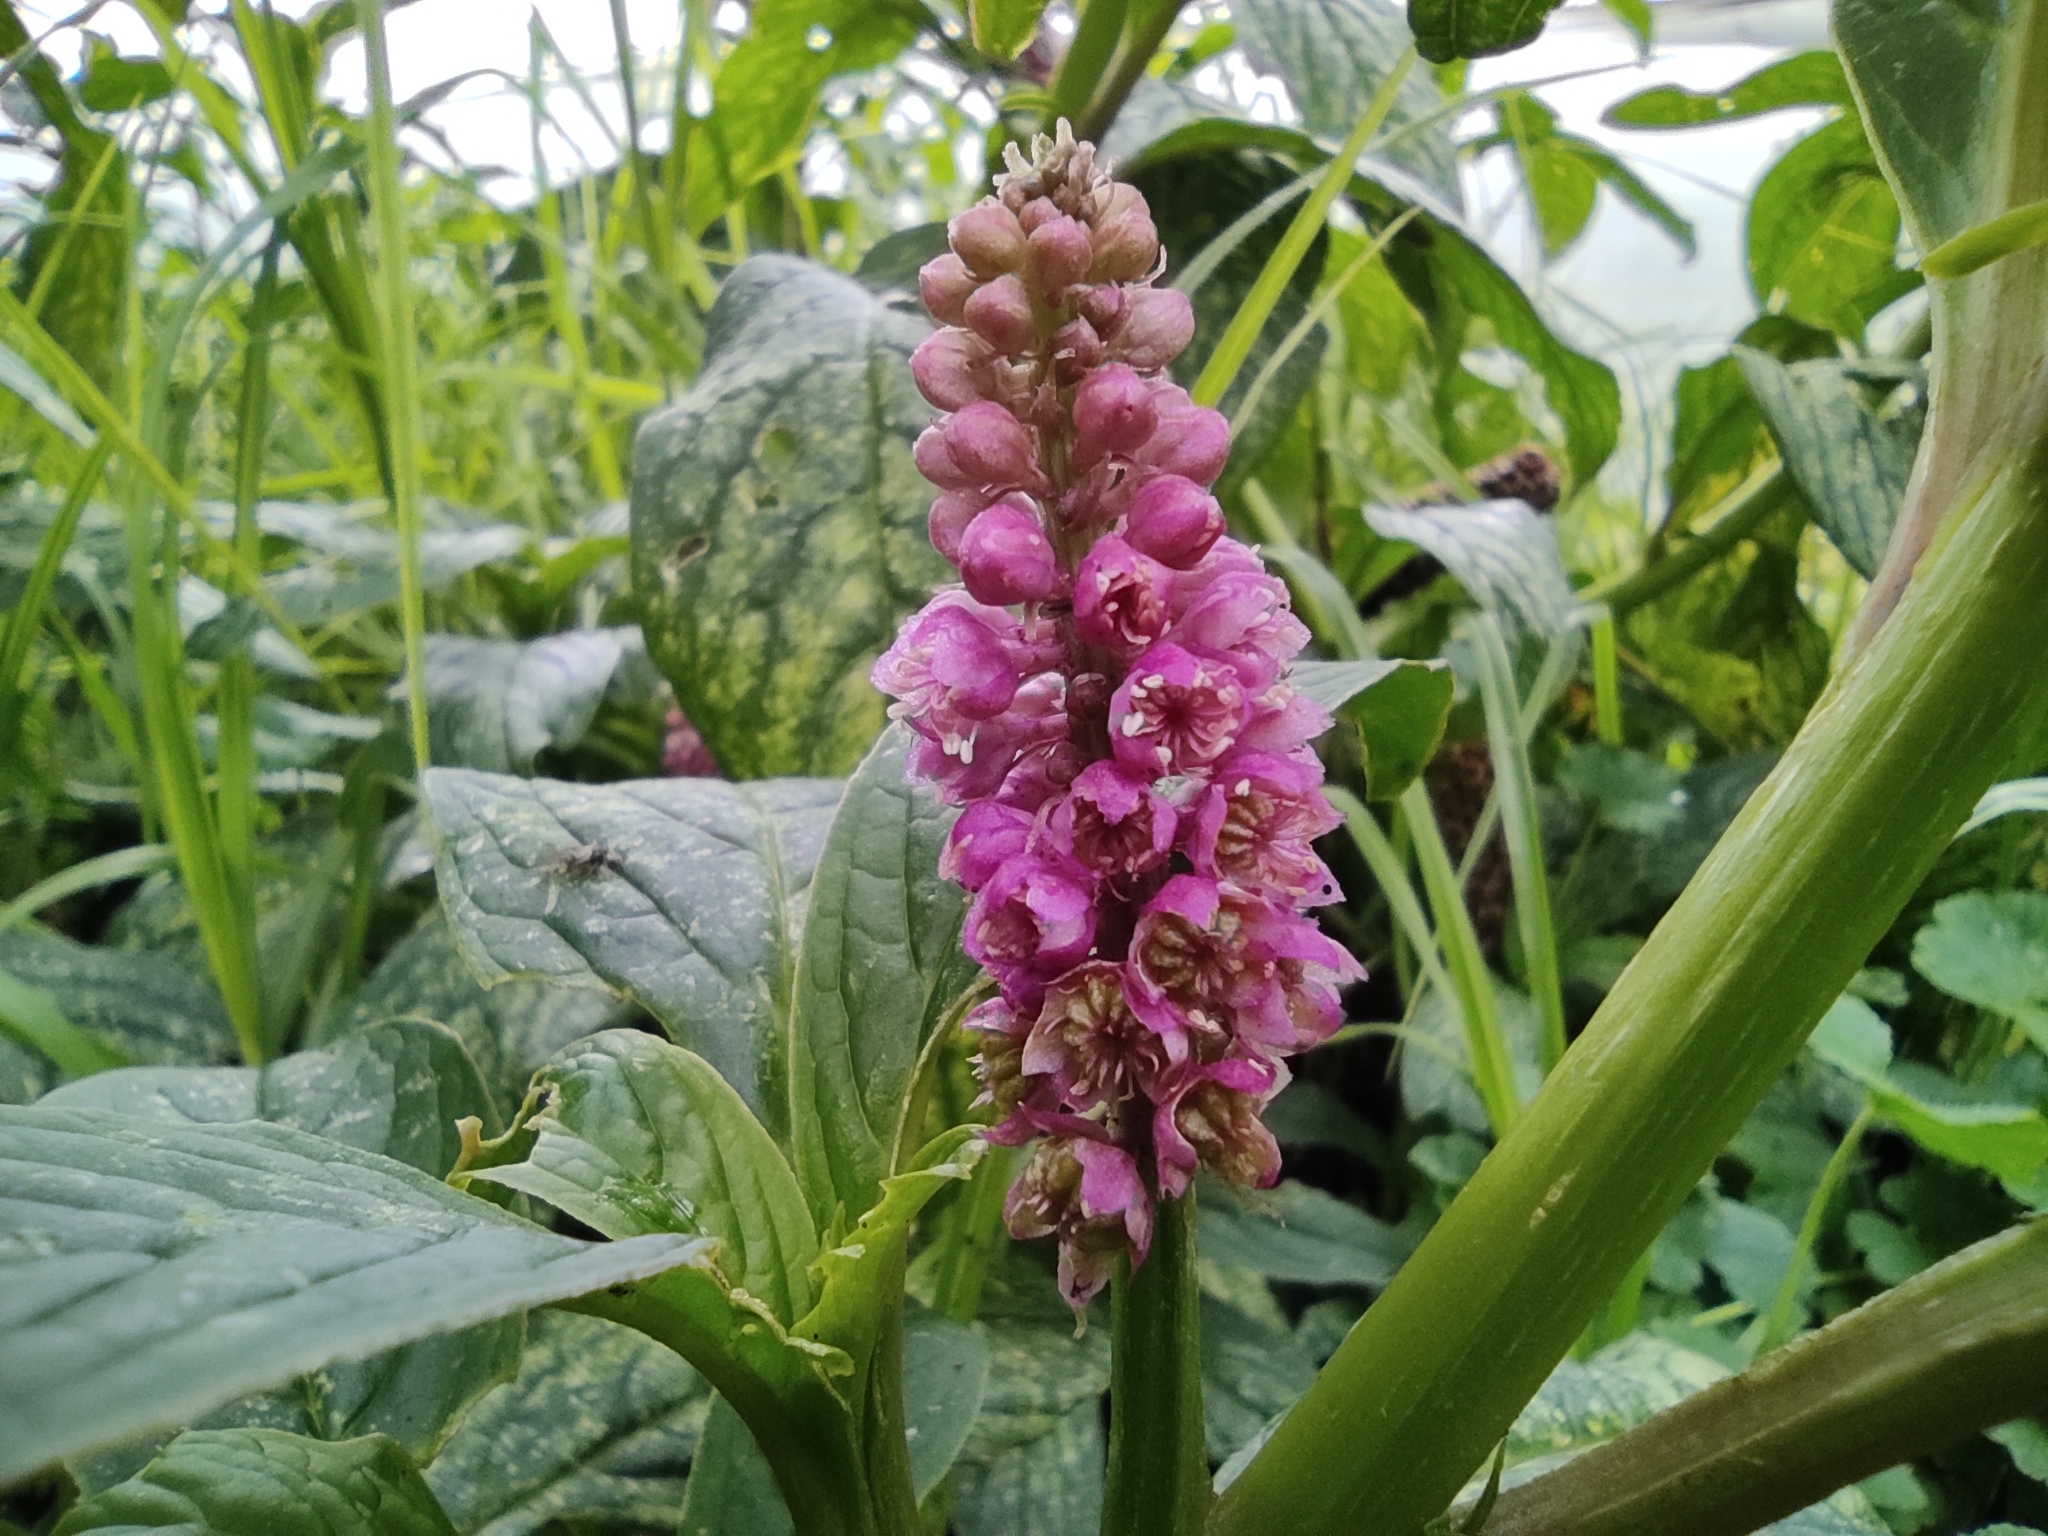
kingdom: Plantae
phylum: Tracheophyta
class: Magnoliopsida
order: Caryophyllales
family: Phytolaccaceae
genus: Phytolacca
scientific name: Phytolacca bogotensis
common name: Southern pokeweed
